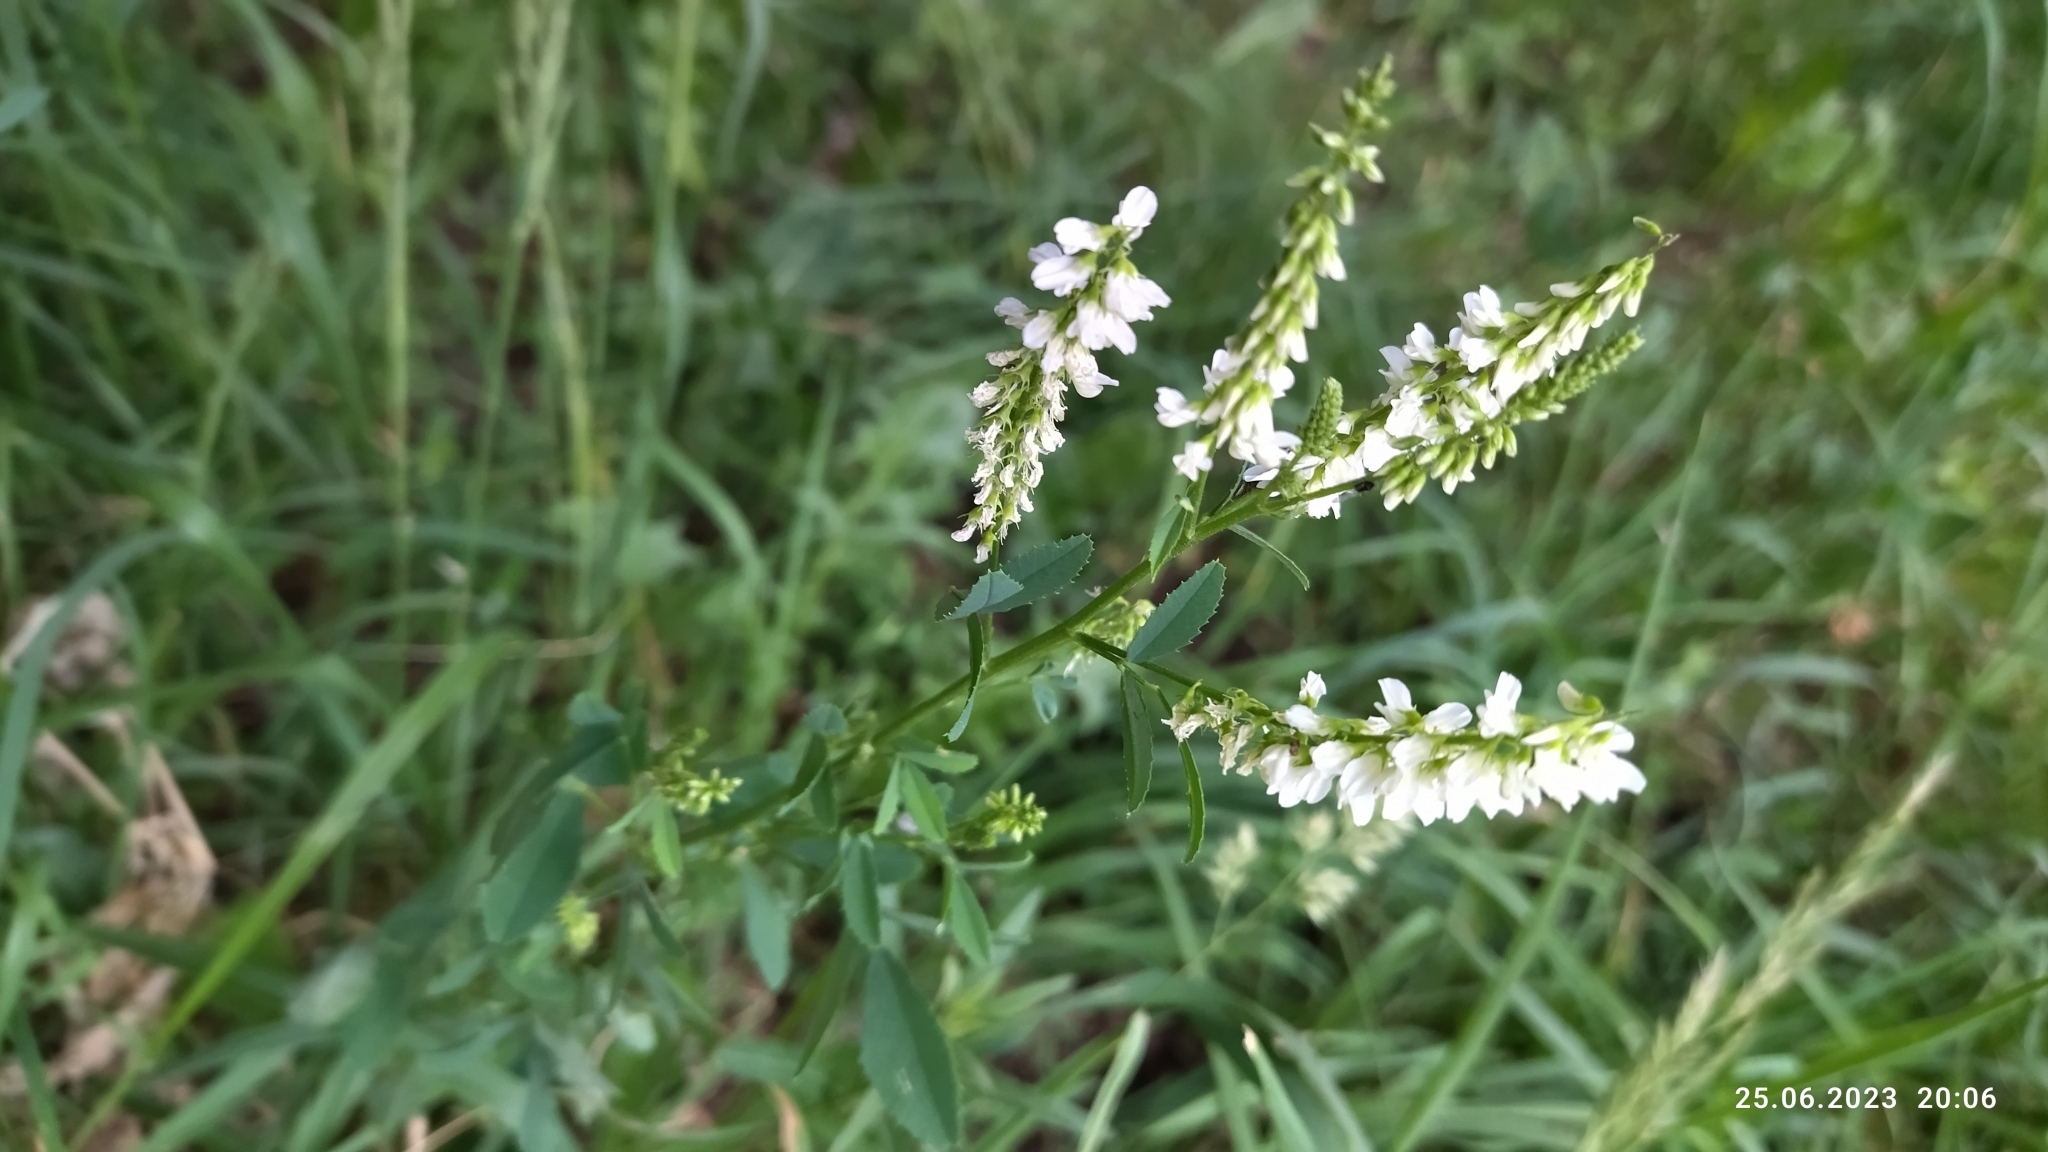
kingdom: Plantae
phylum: Tracheophyta
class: Magnoliopsida
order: Fabales
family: Fabaceae
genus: Melilotus
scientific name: Melilotus albus
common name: White melilot
